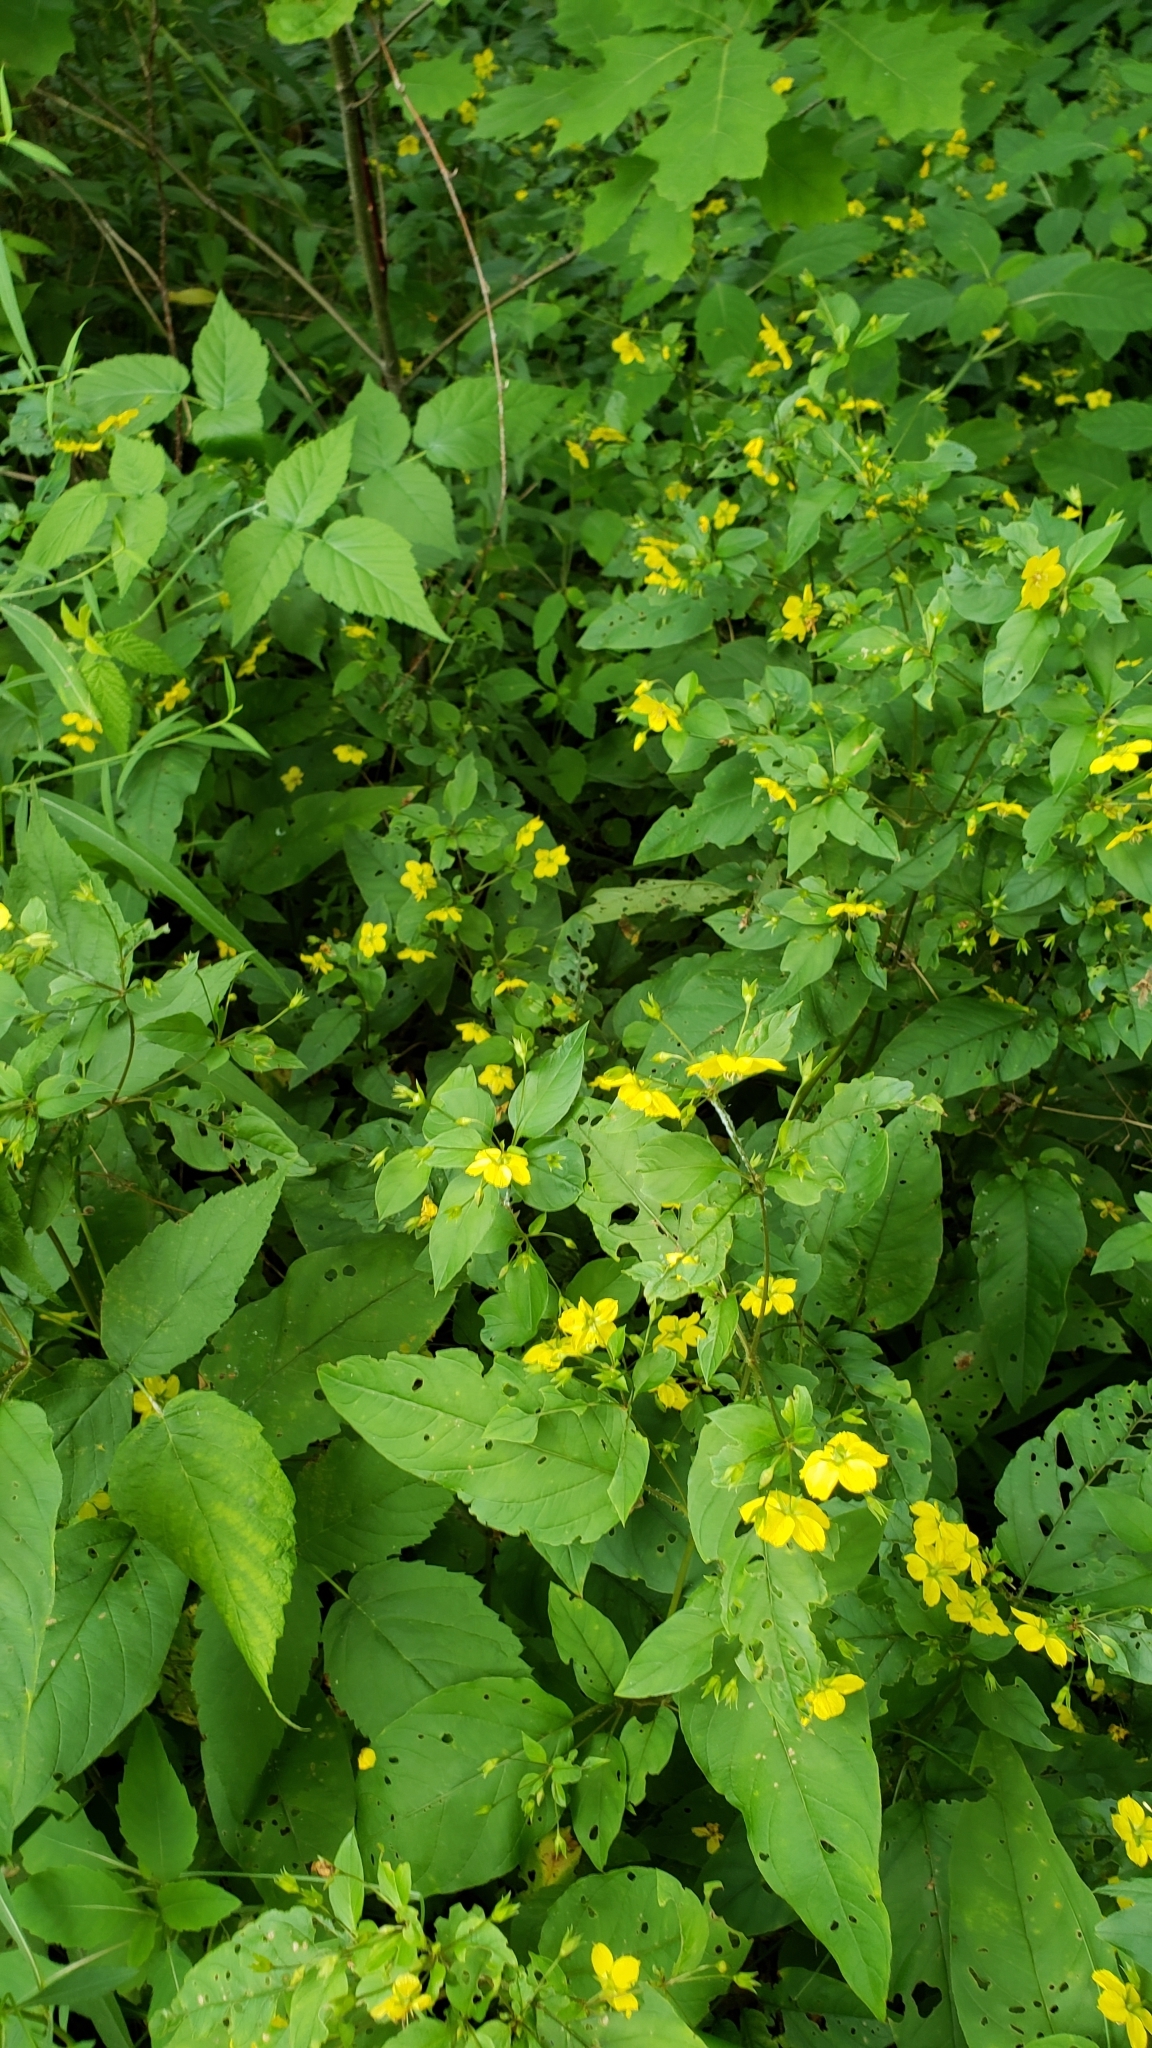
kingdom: Plantae
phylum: Tracheophyta
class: Magnoliopsida
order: Ericales
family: Primulaceae
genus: Lysimachia
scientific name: Lysimachia ciliata
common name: Fringed loosestrife
